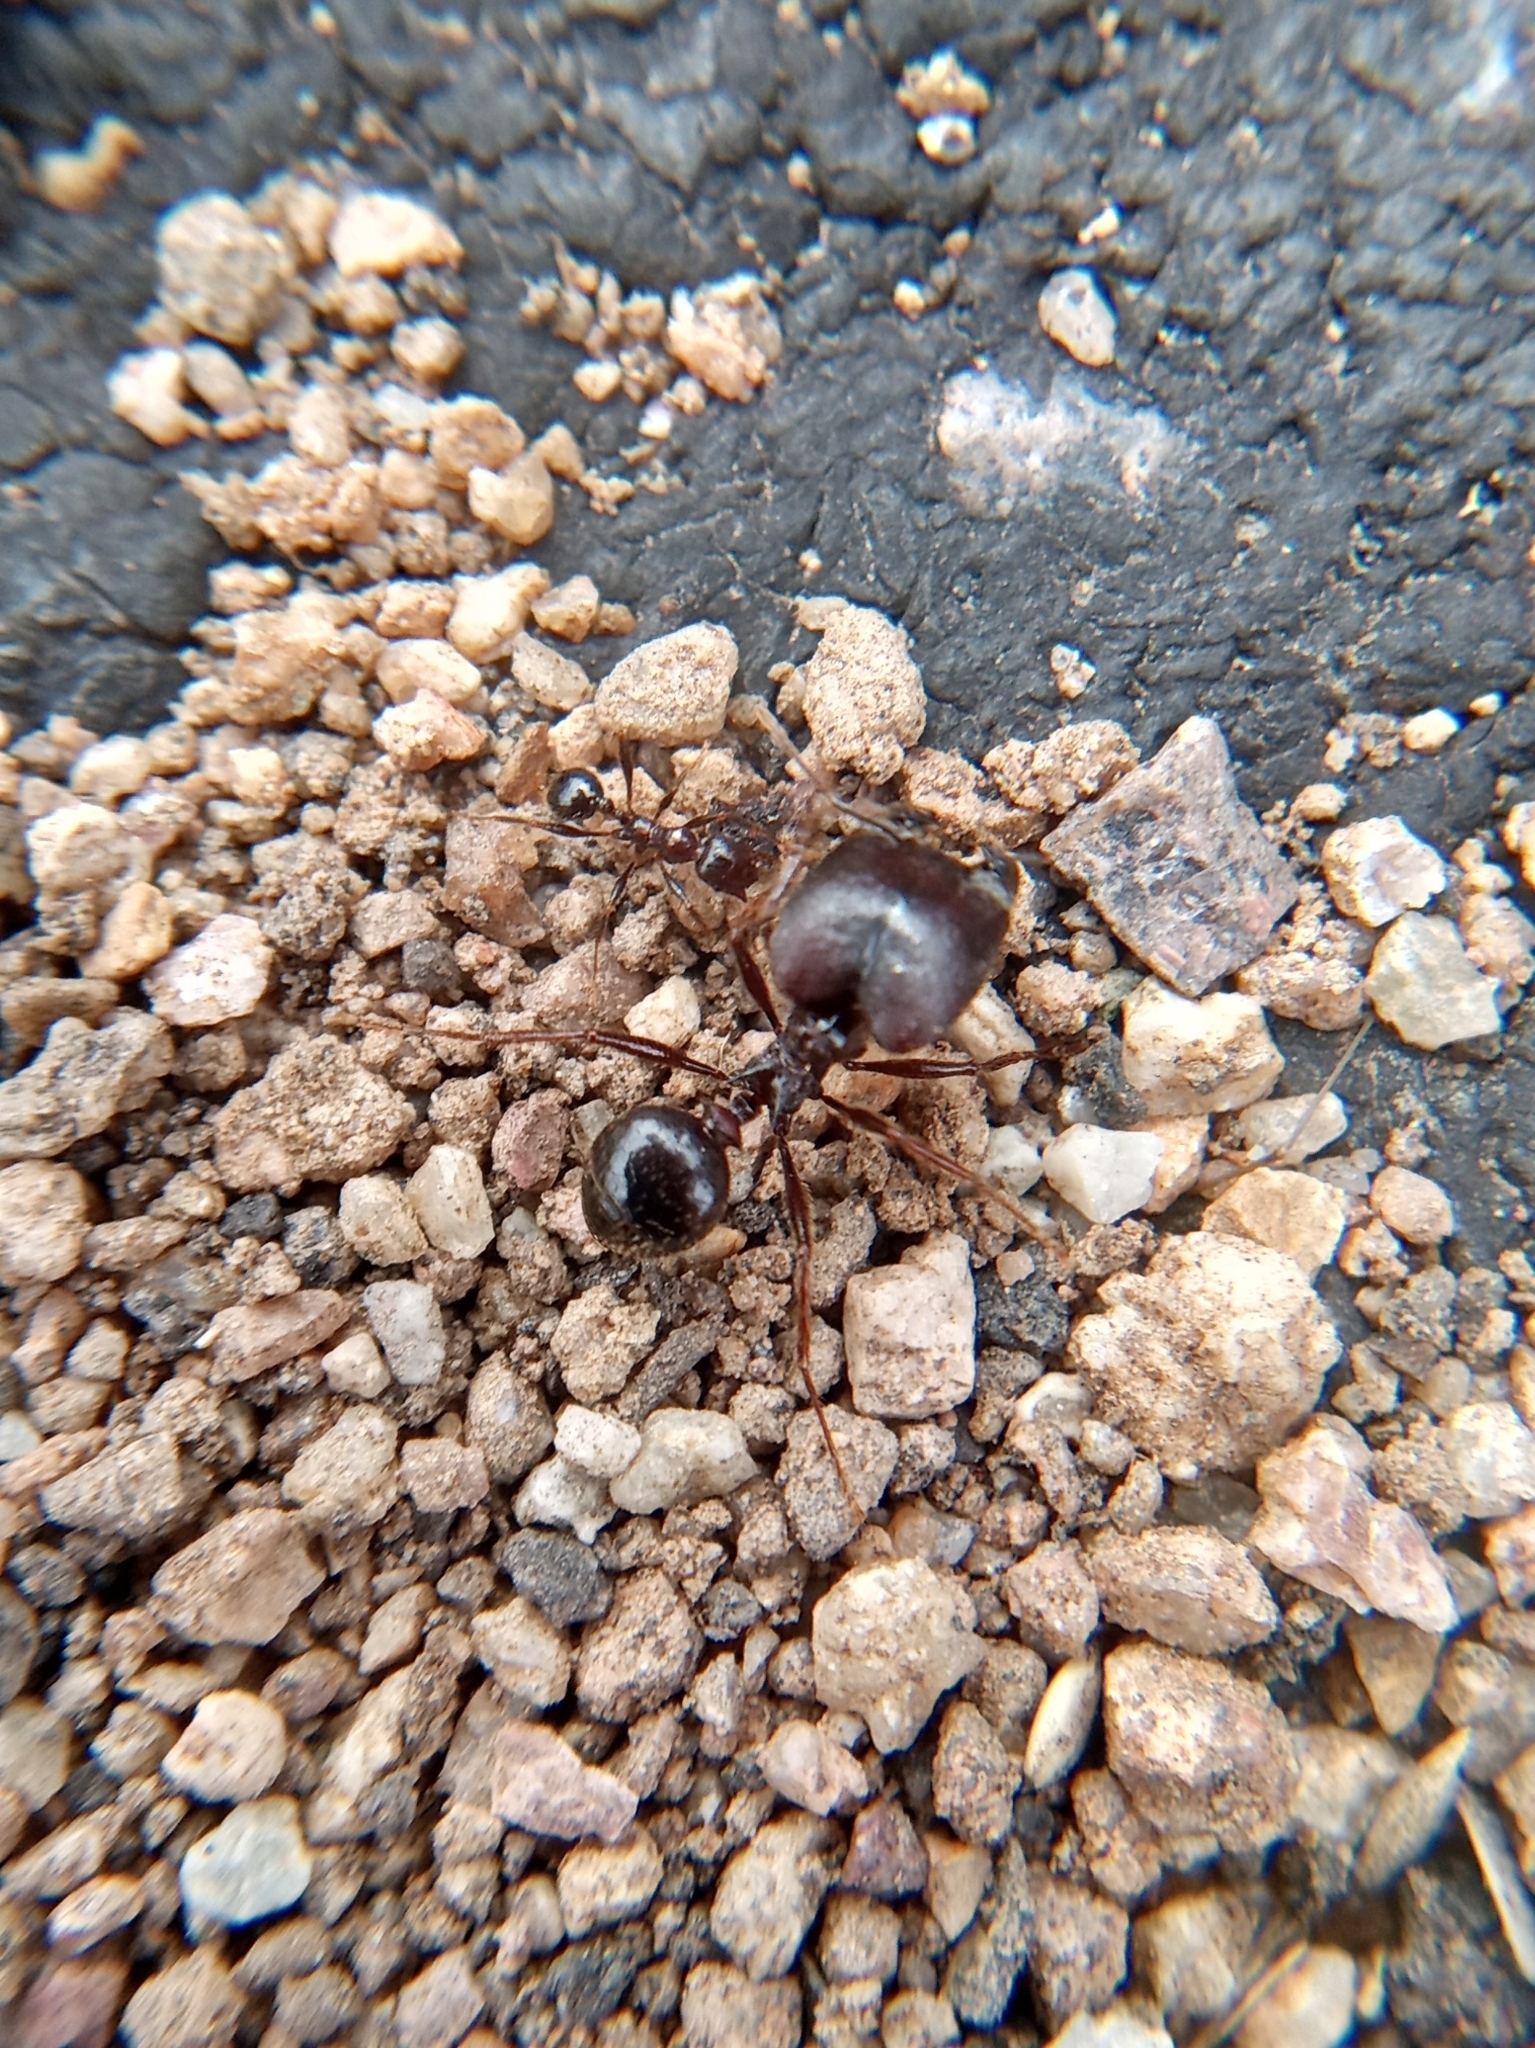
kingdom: Animalia
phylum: Arthropoda
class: Insecta
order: Hymenoptera
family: Formicidae
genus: Pheidole
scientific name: Pheidole rhea
